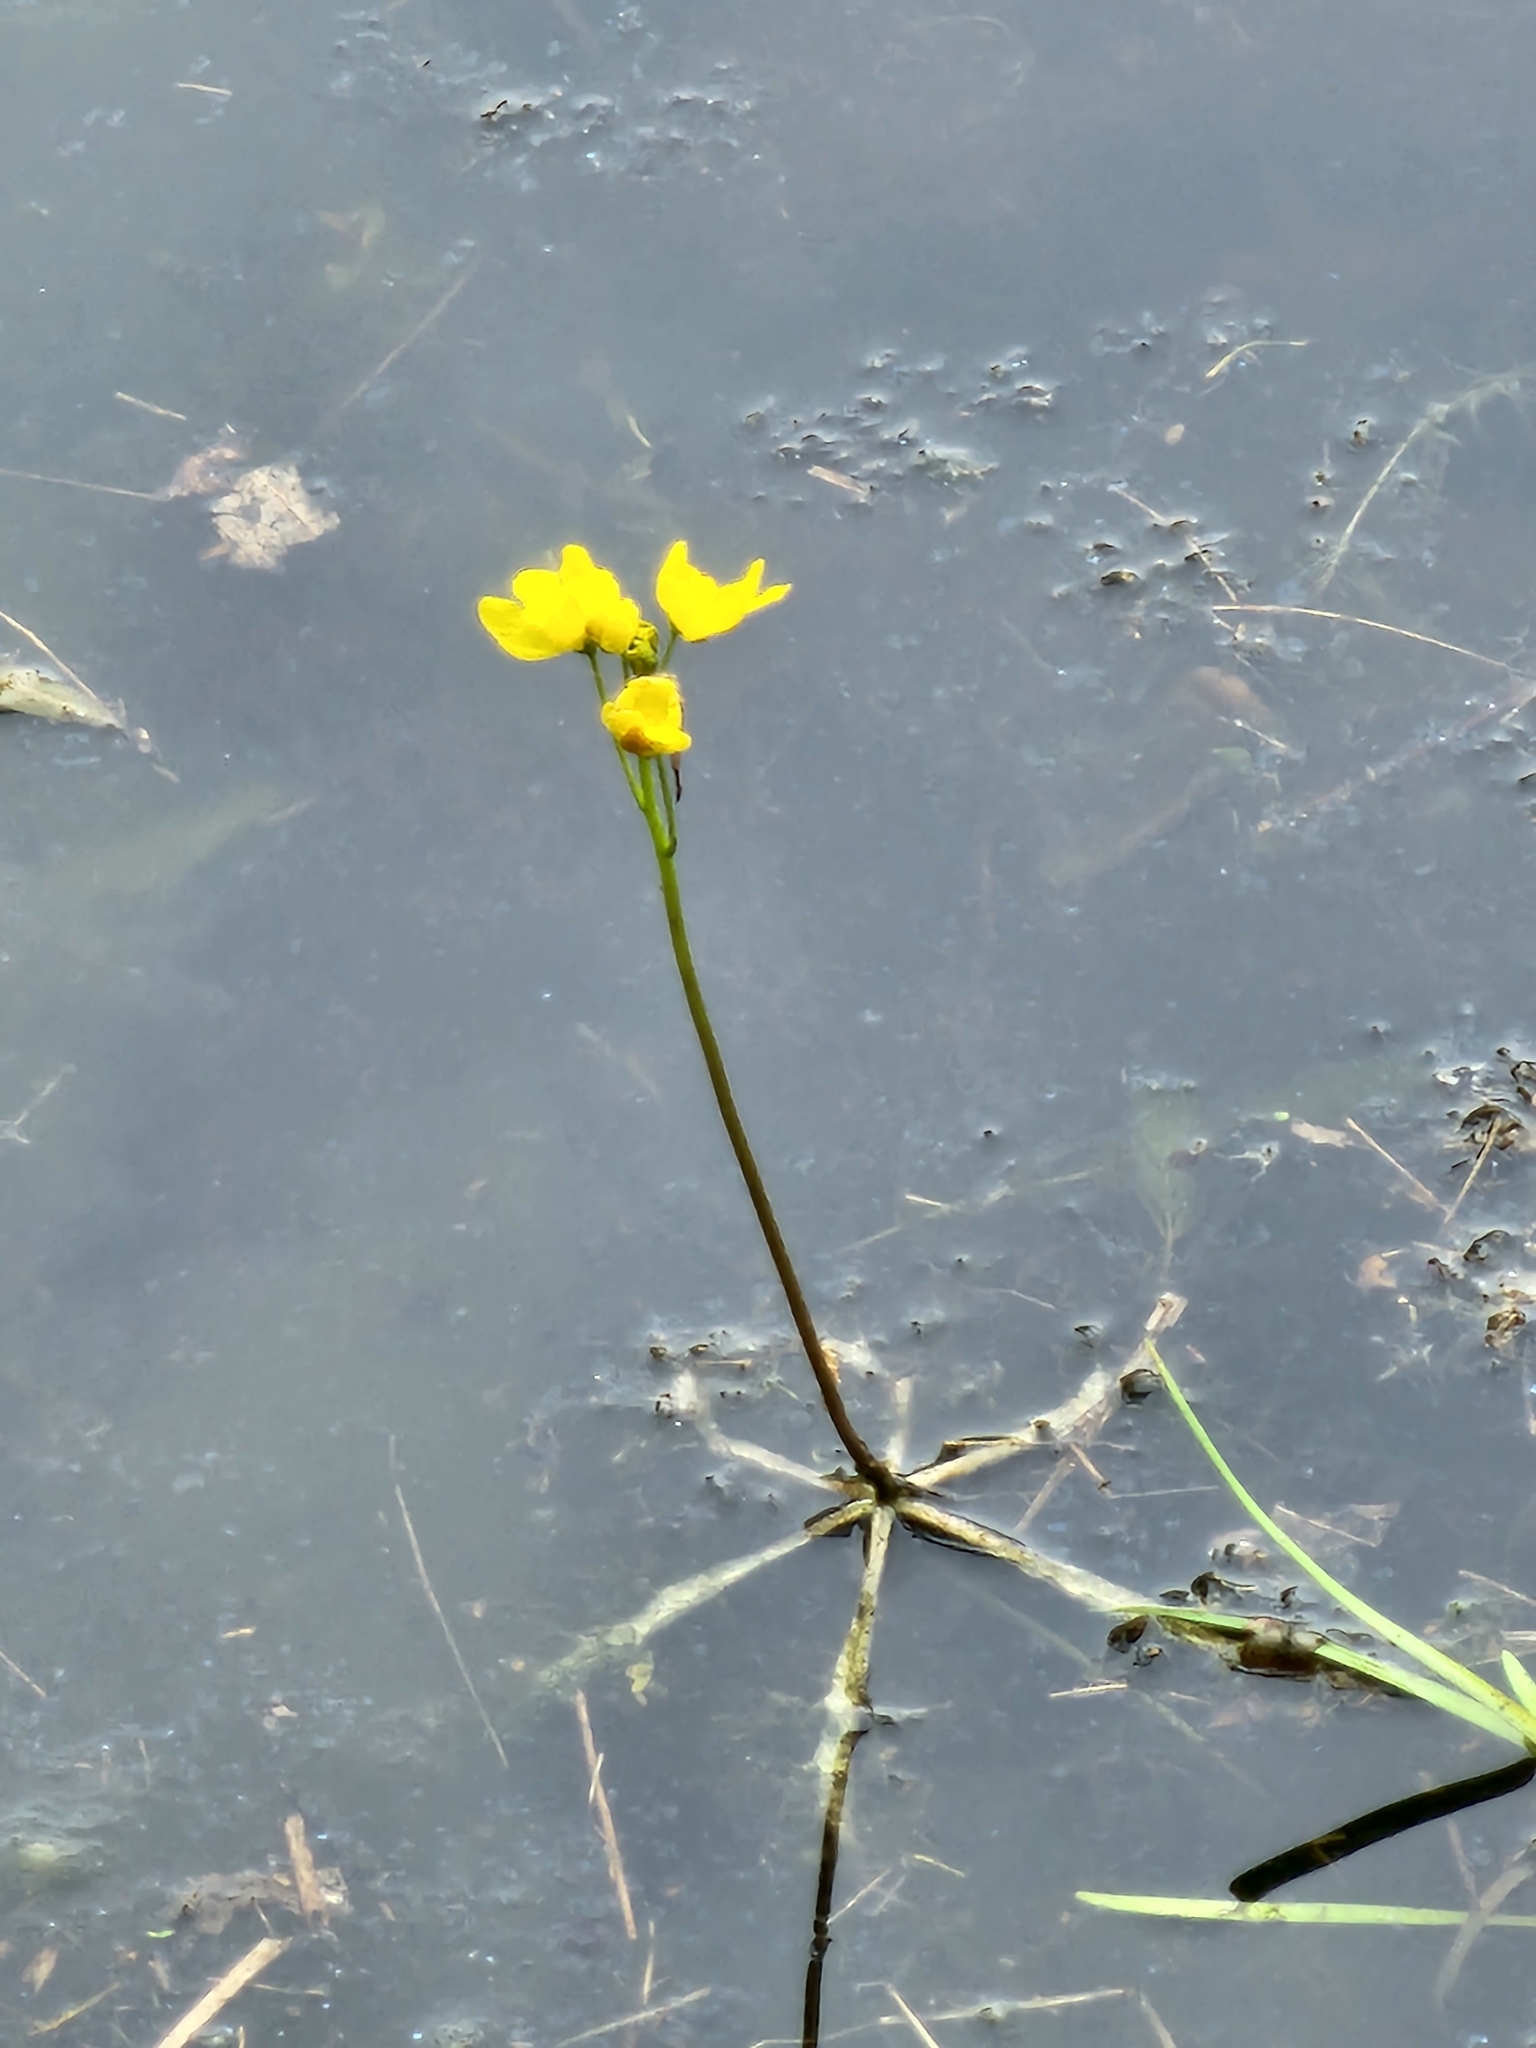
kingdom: Plantae
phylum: Tracheophyta
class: Magnoliopsida
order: Lamiales
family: Lentibulariaceae
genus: Utricularia
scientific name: Utricularia inflata
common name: Floating bladderwort
